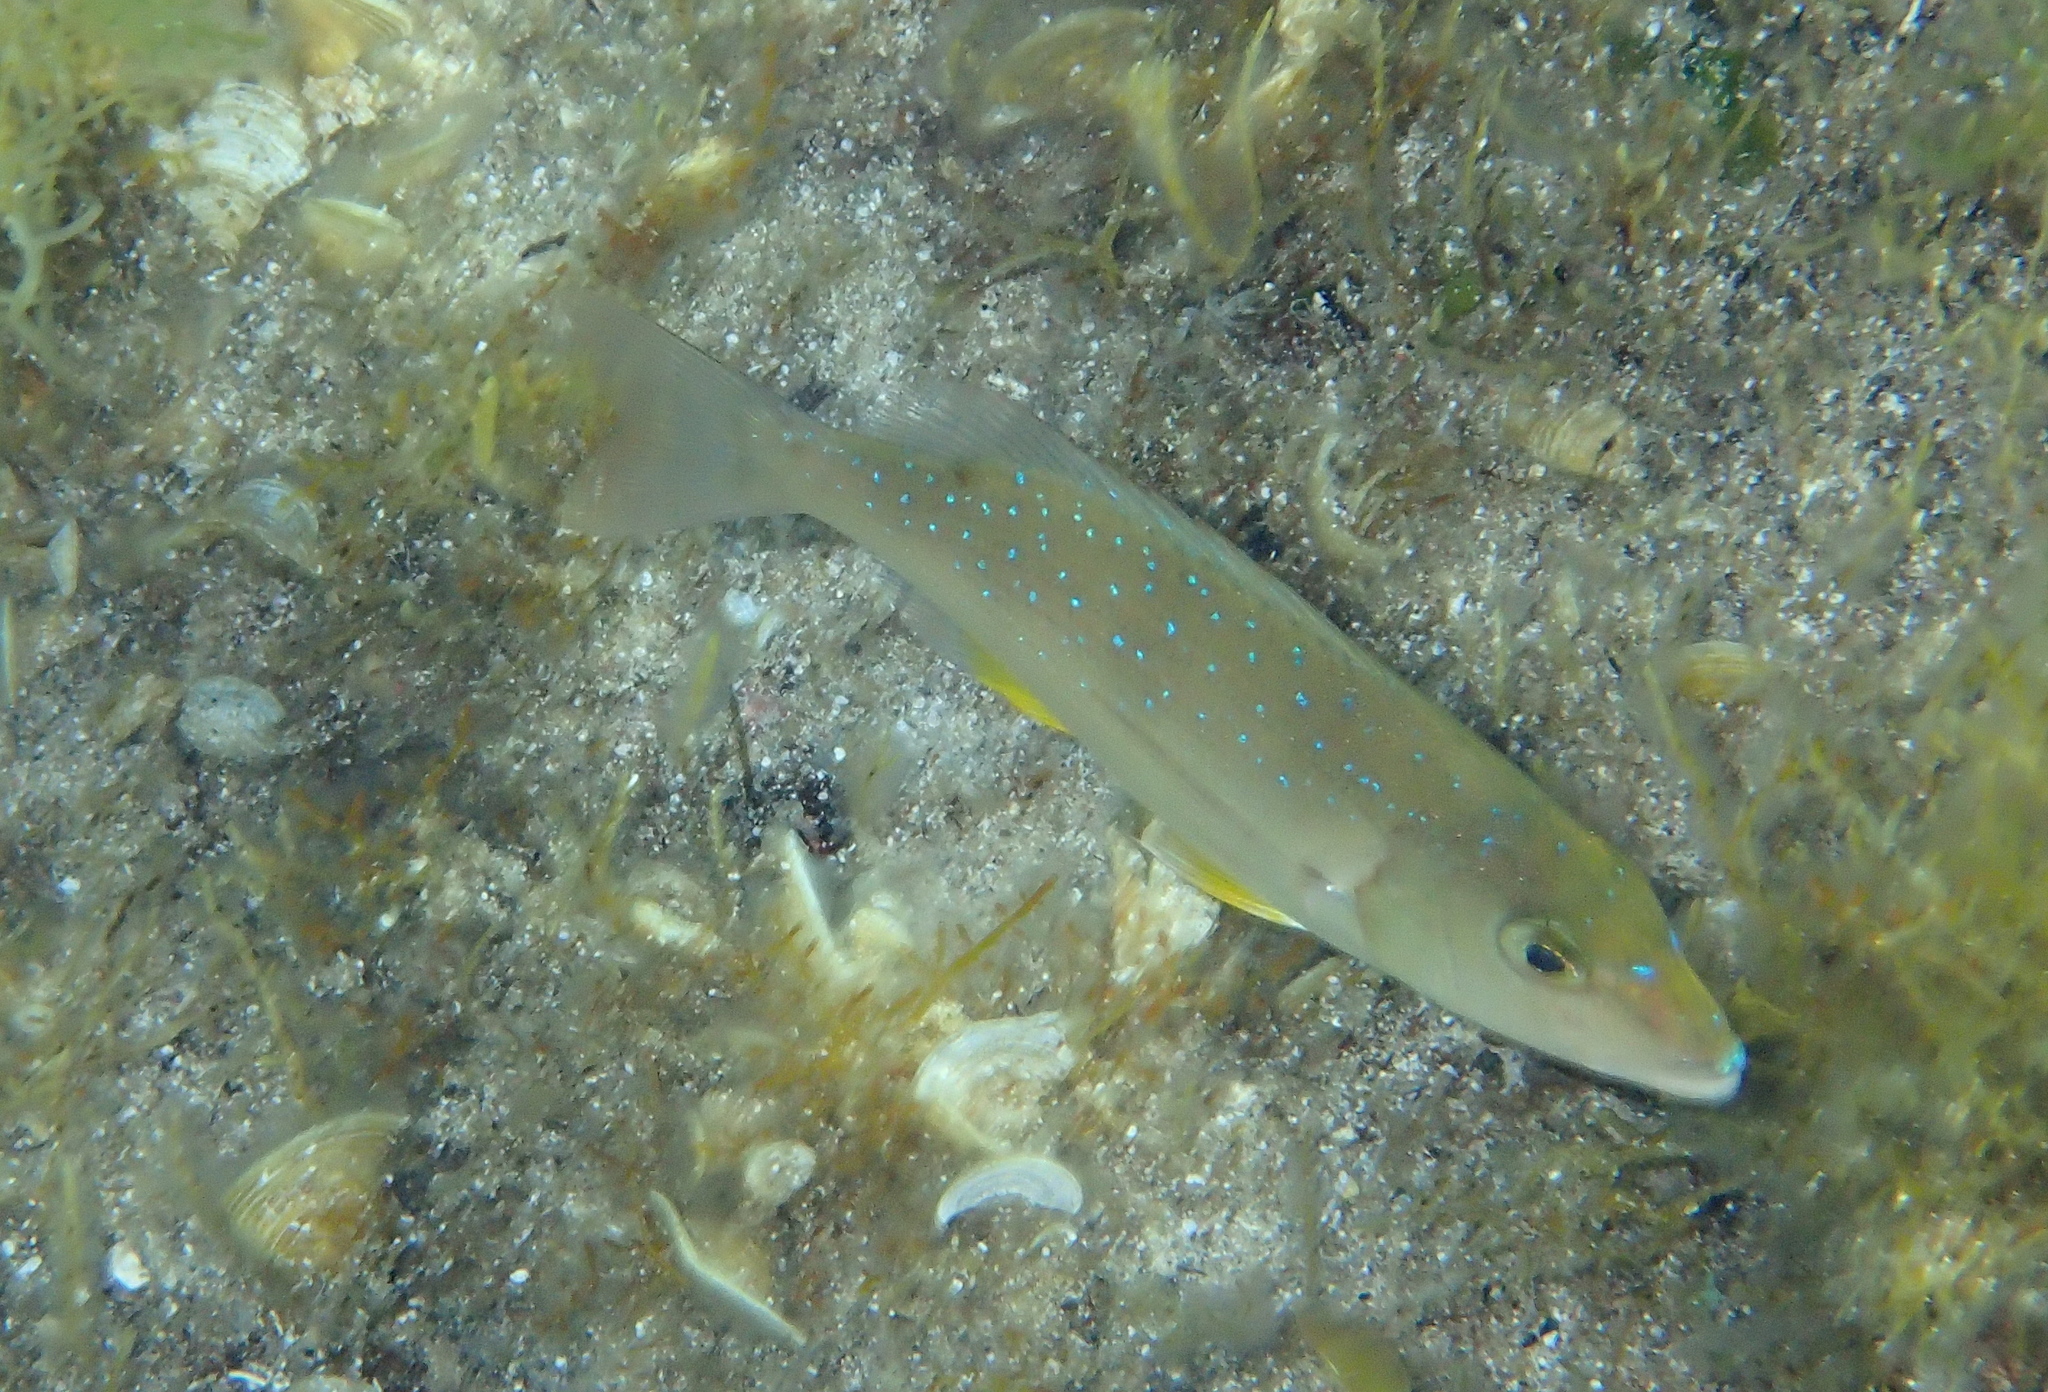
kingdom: Animalia
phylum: Chordata
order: Perciformes
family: Sparidae
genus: Dentex
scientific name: Dentex dentex
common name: Dentex
